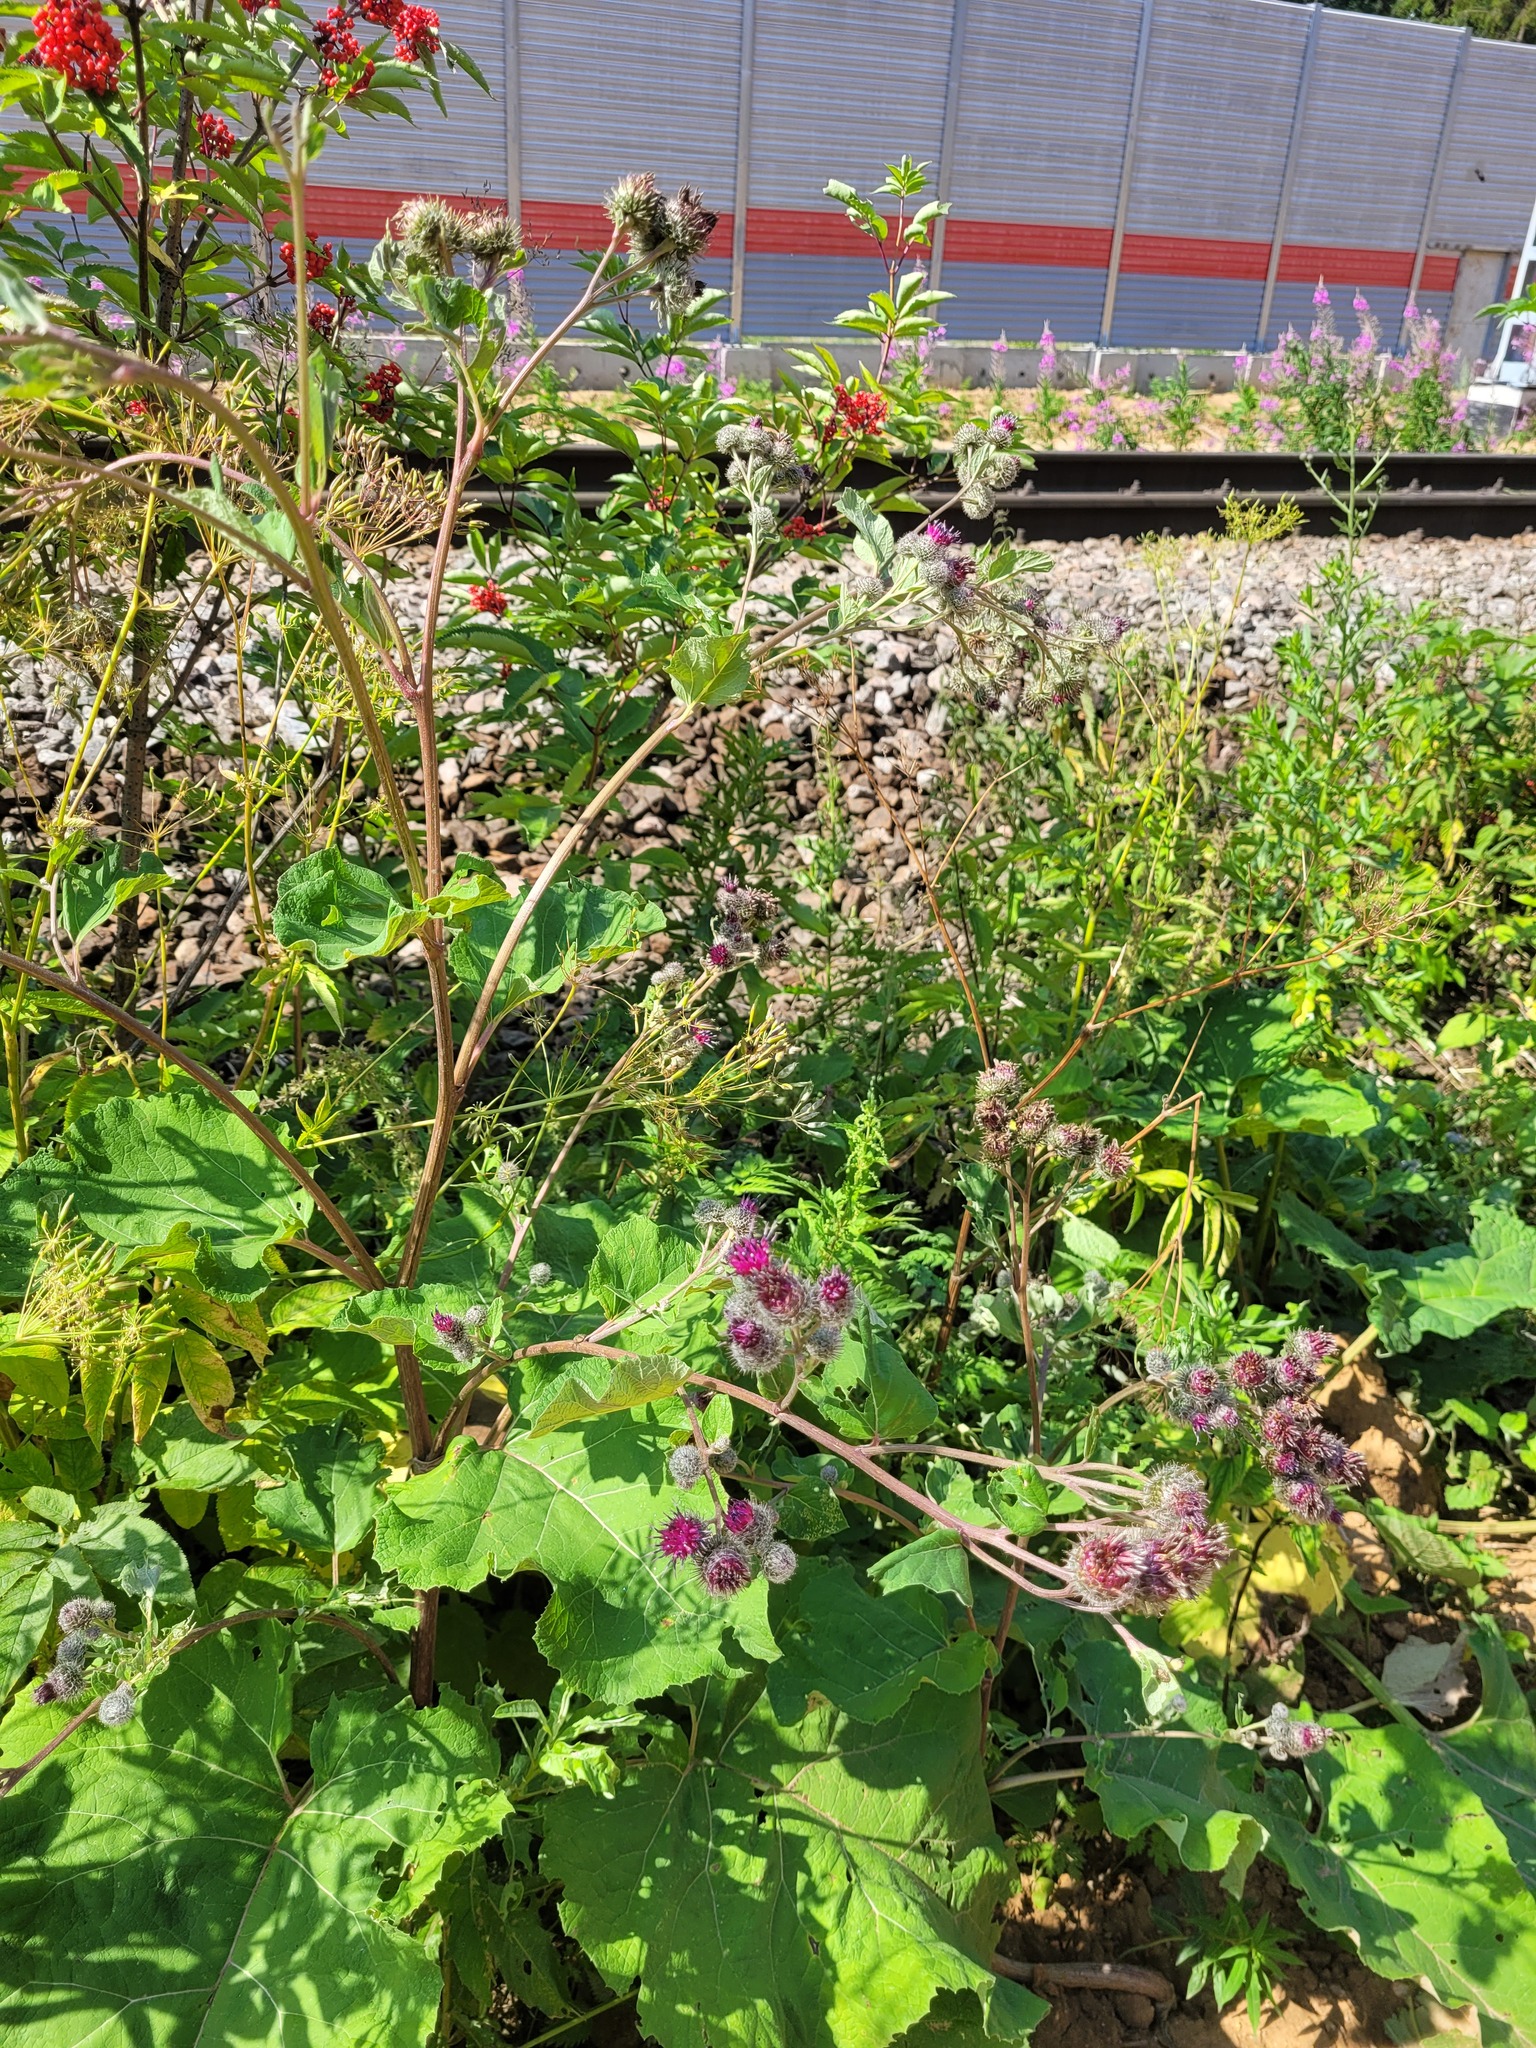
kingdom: Plantae
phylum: Tracheophyta
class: Magnoliopsida
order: Asterales
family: Asteraceae
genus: Arctium
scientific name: Arctium tomentosum
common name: Woolly burdock
